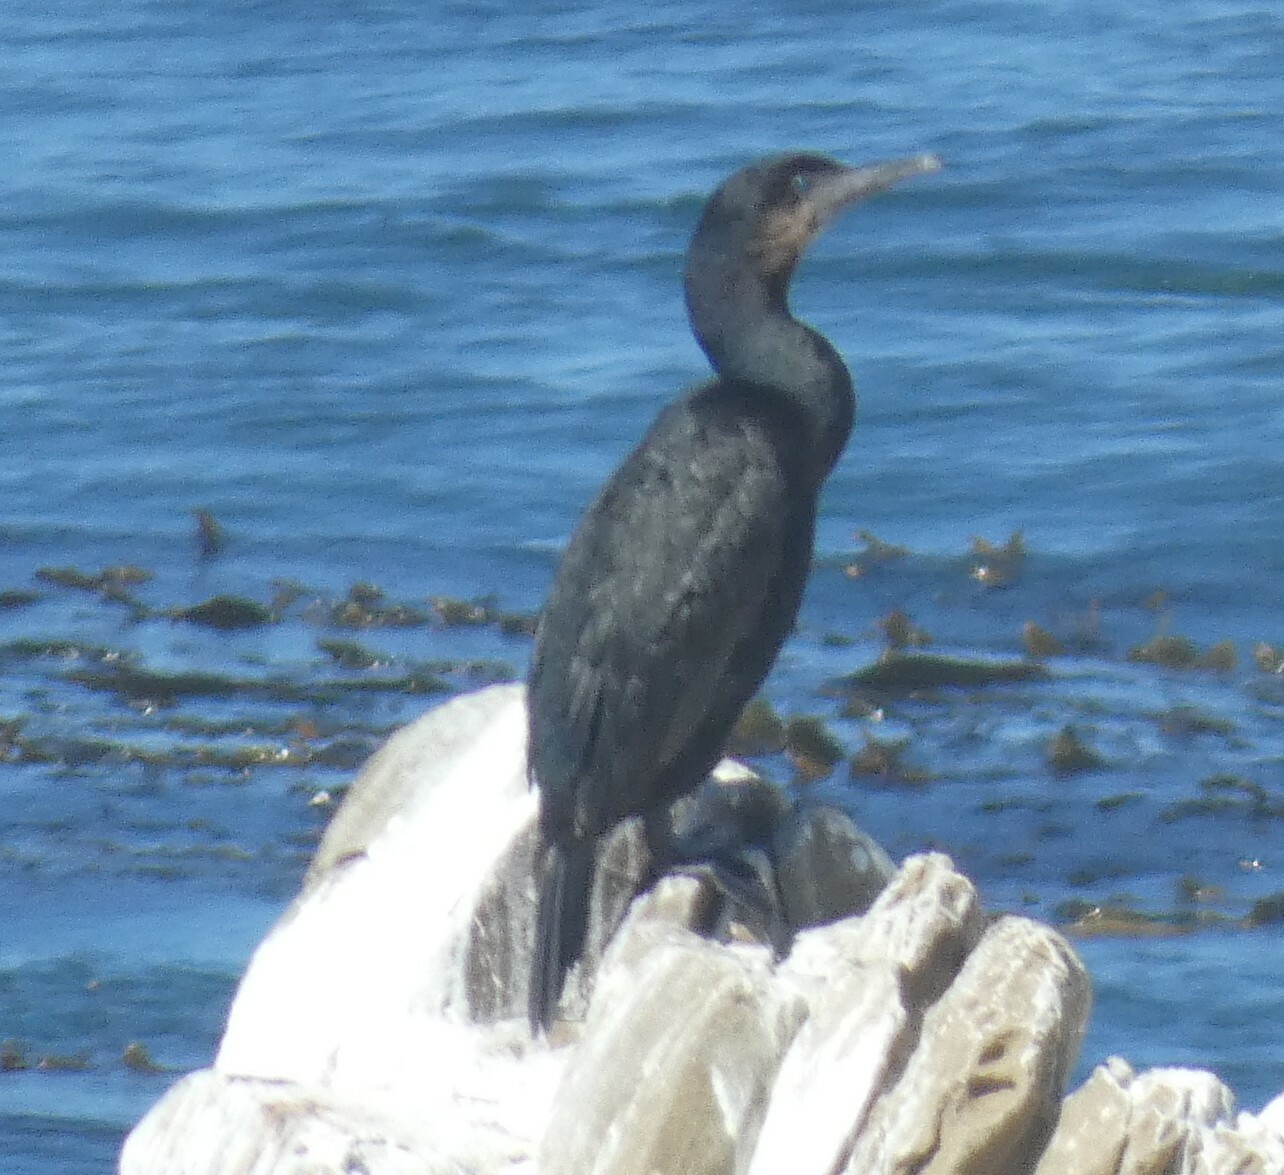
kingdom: Animalia
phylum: Chordata
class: Aves
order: Suliformes
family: Phalacrocoracidae
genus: Urile
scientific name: Urile penicillatus
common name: Brandt's cormorant
